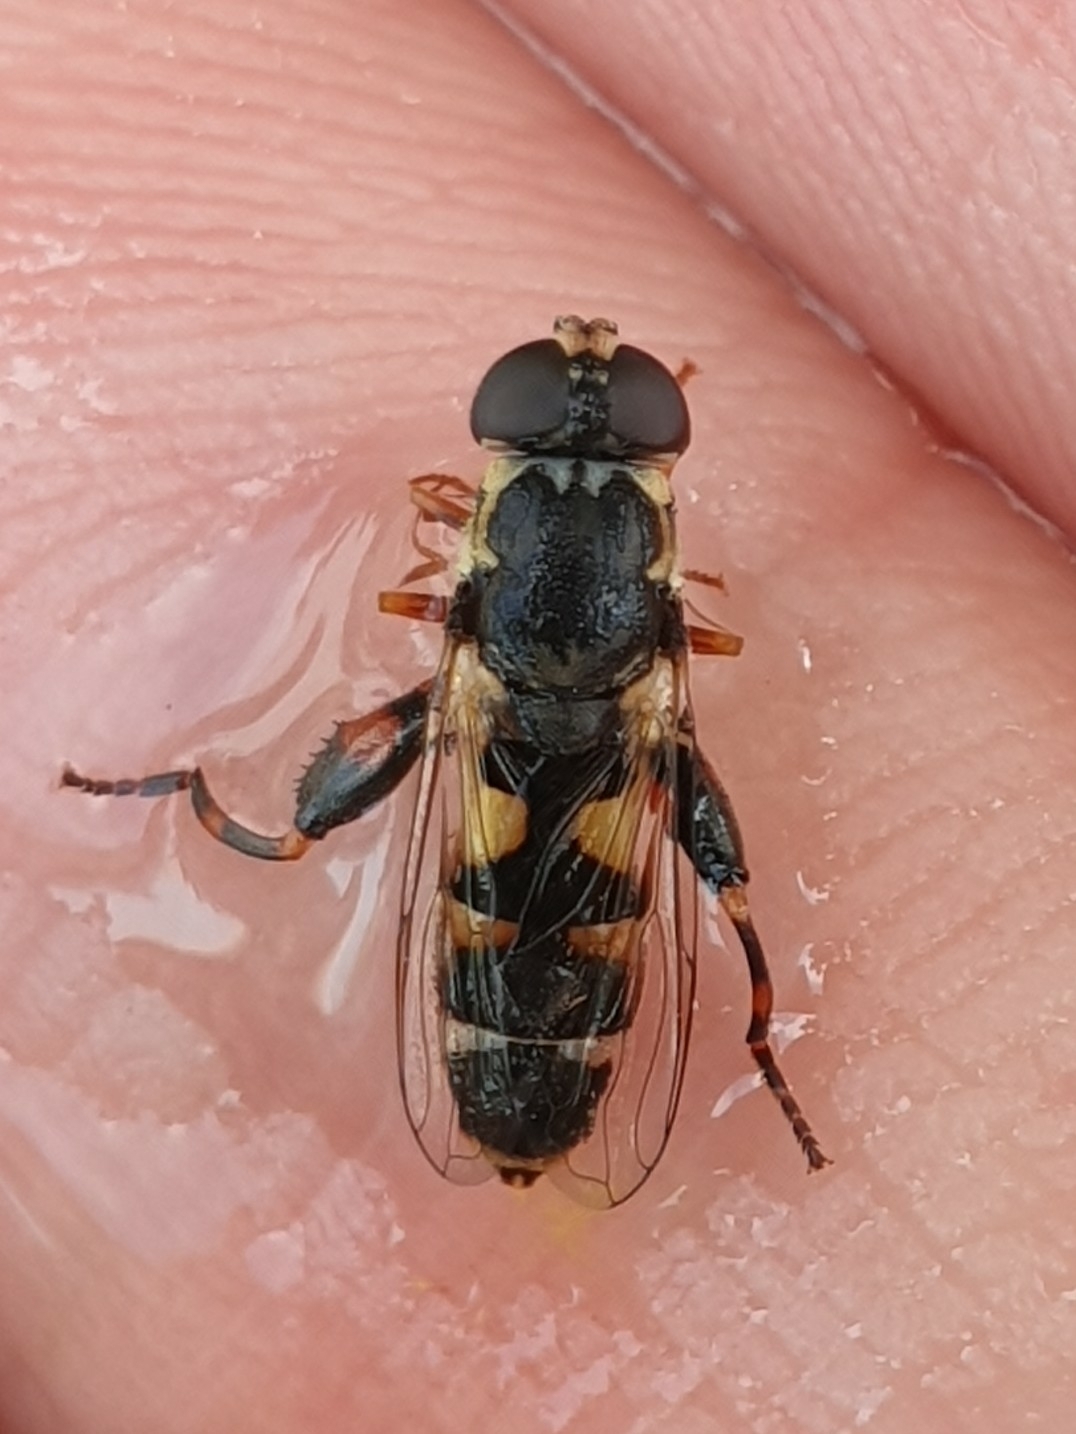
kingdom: Animalia
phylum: Arthropoda
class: Insecta
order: Diptera
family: Syrphidae
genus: Syritta
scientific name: Syritta pipiens
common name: Hover fly
